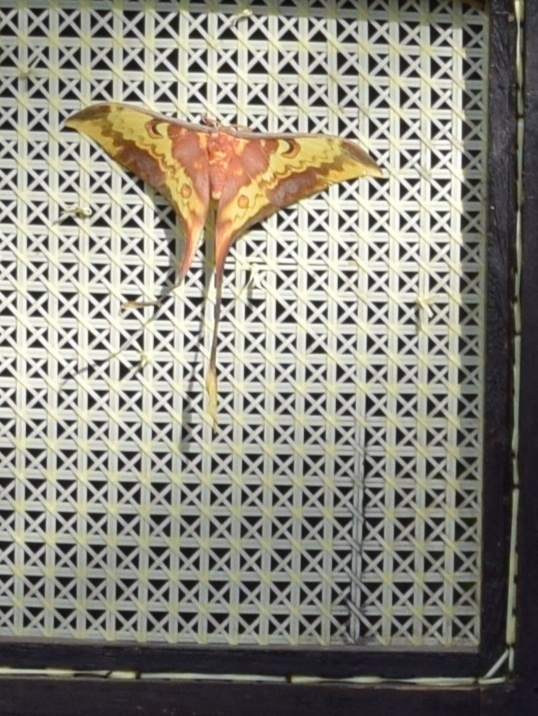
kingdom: Animalia
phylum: Arthropoda
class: Insecta
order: Lepidoptera
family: Saturniidae
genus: Actias
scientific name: Actias
